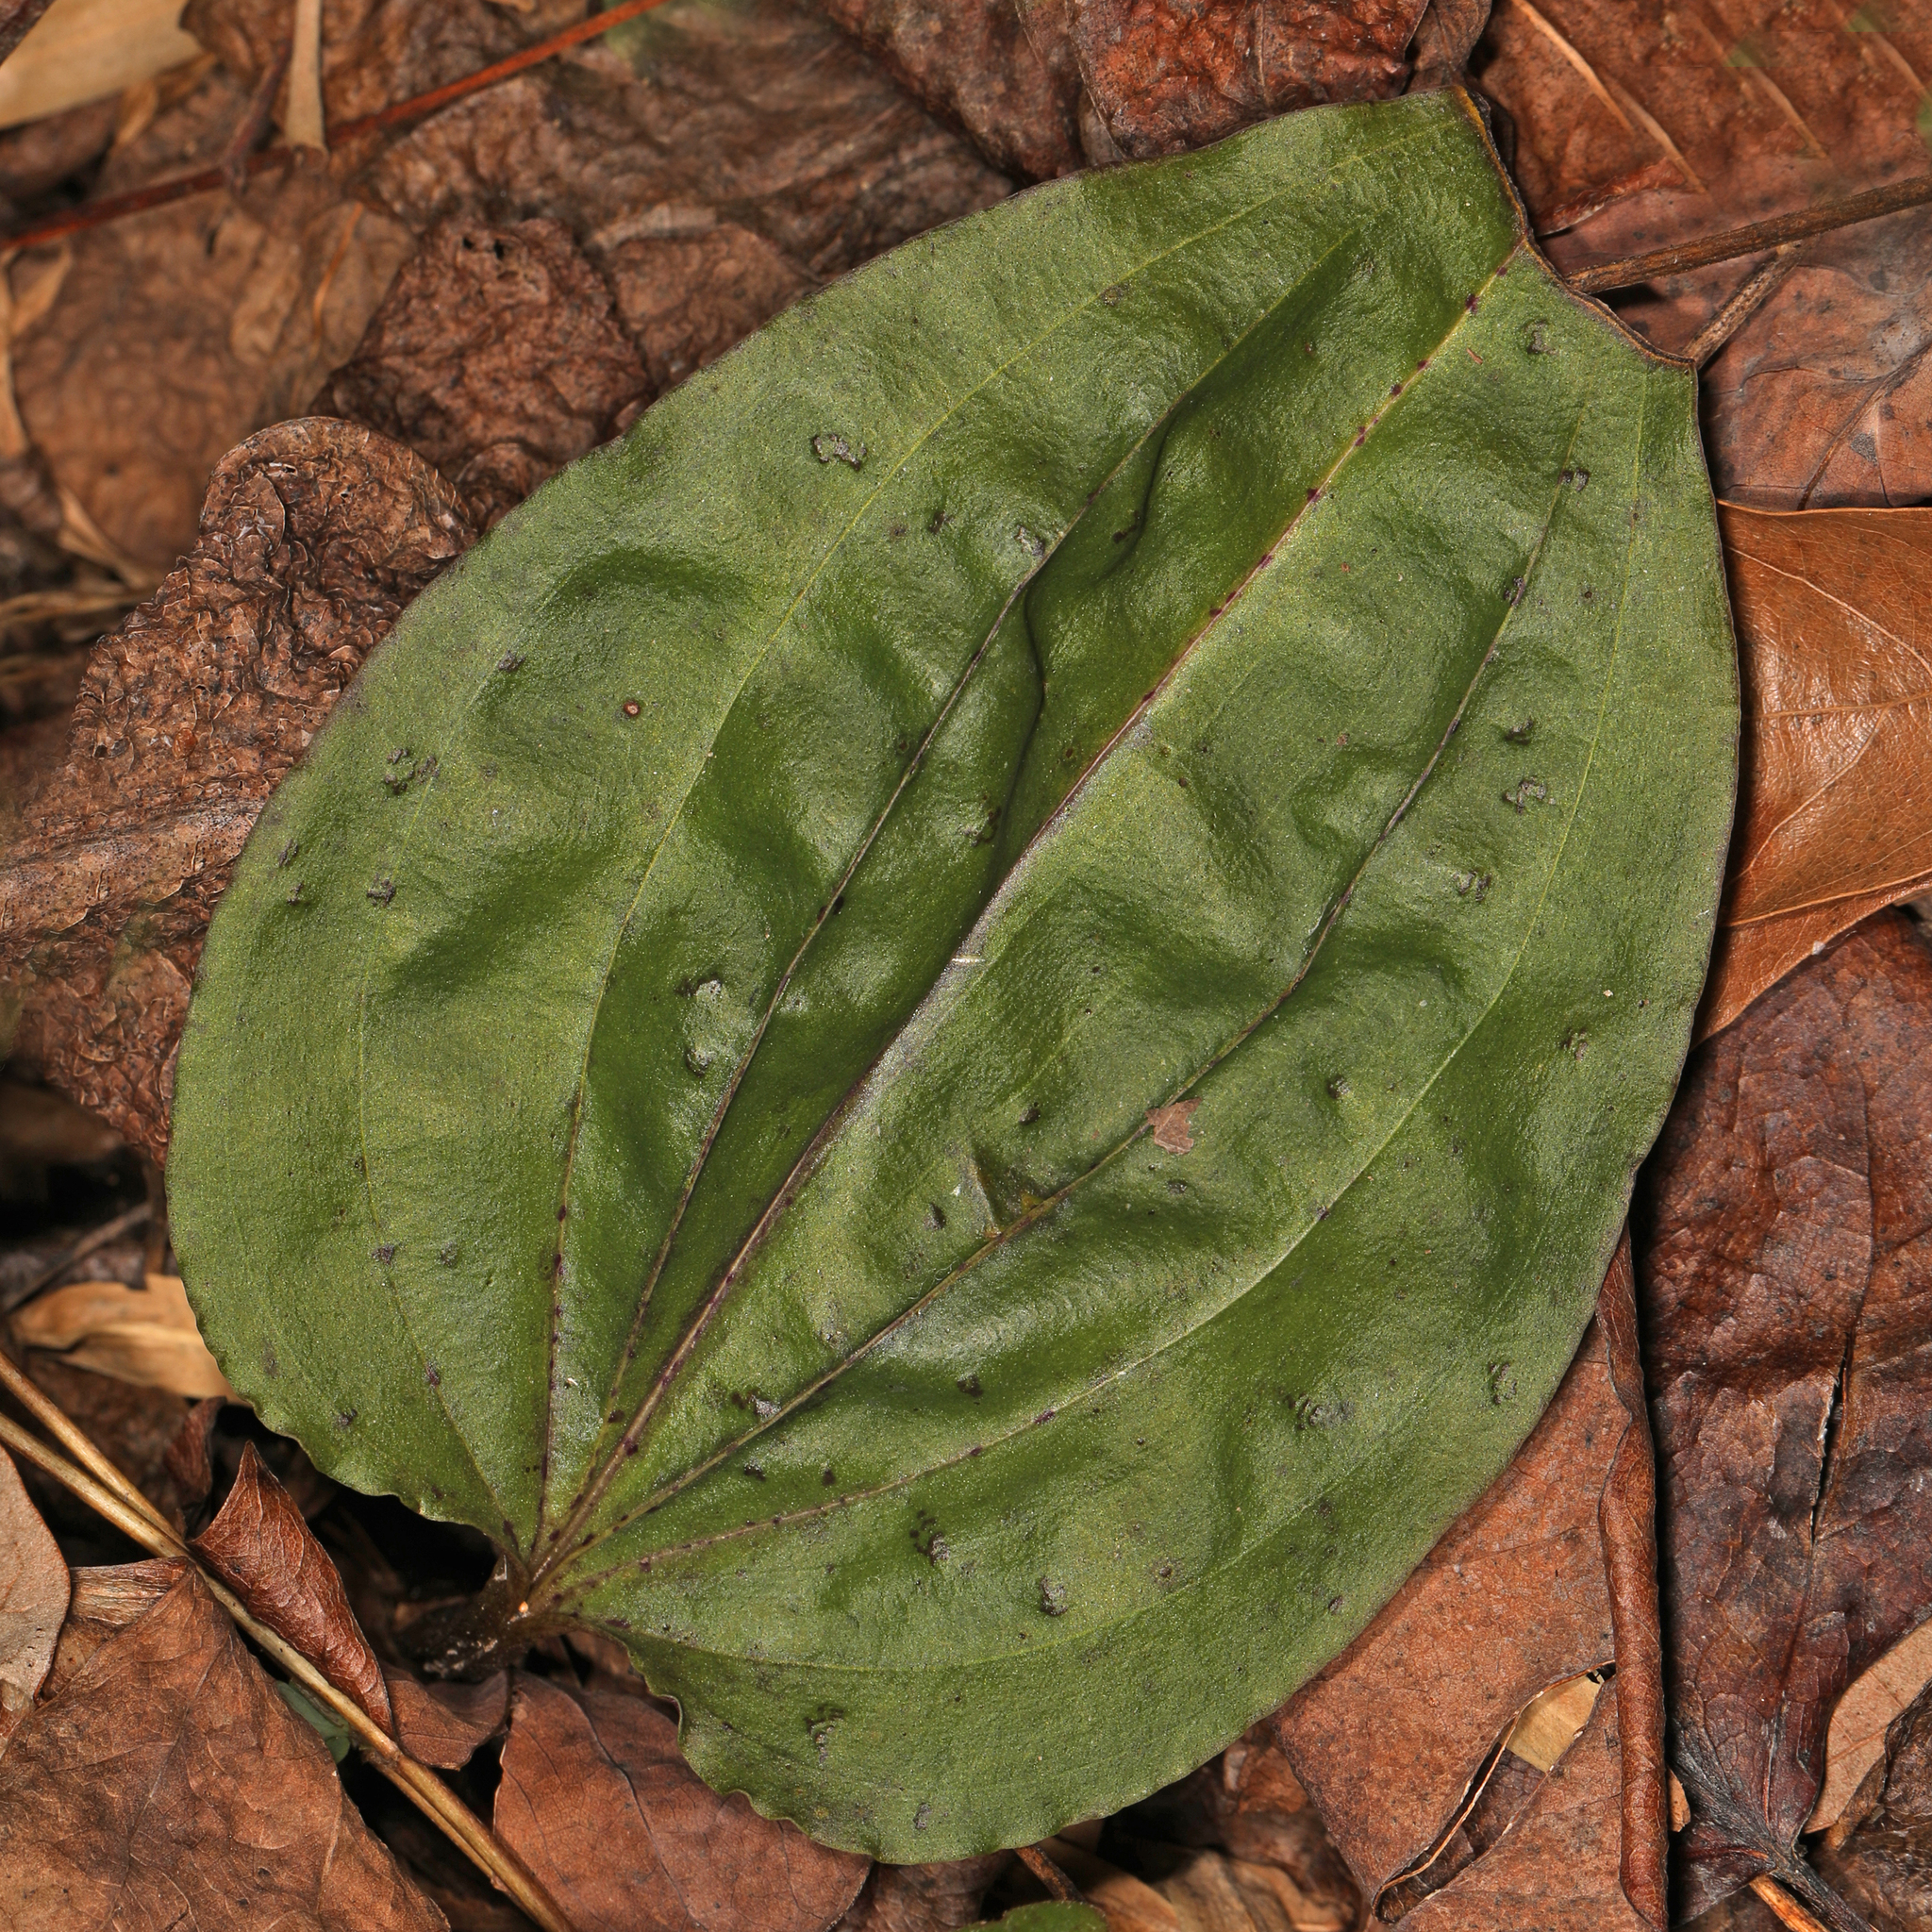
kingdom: Plantae
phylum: Tracheophyta
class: Liliopsida
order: Asparagales
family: Orchidaceae
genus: Tipularia
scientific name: Tipularia discolor
